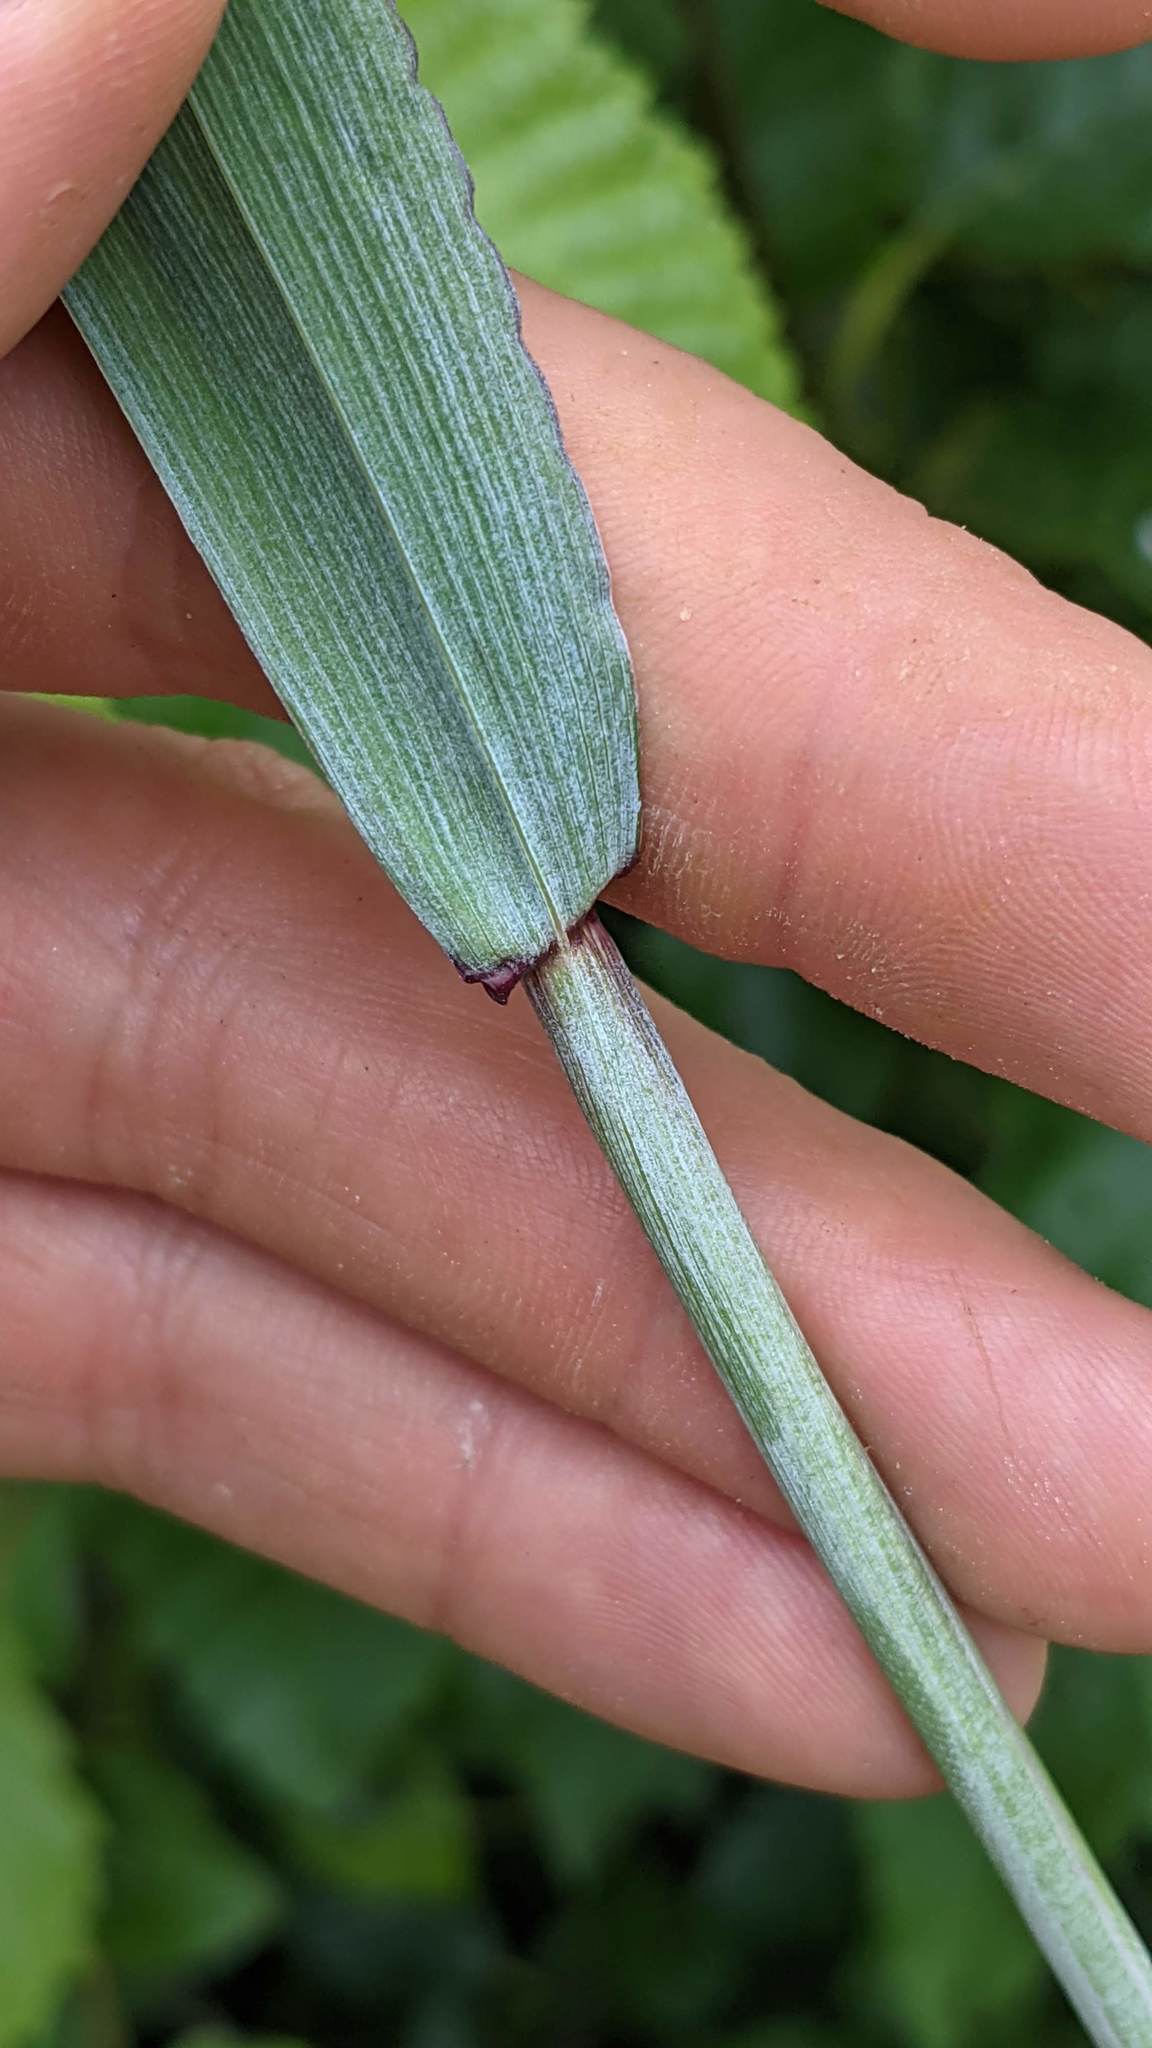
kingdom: Plantae
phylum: Tracheophyta
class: Liliopsida
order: Poales
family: Poaceae
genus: Elymus
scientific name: Elymus glaucus
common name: Blue wild rye
